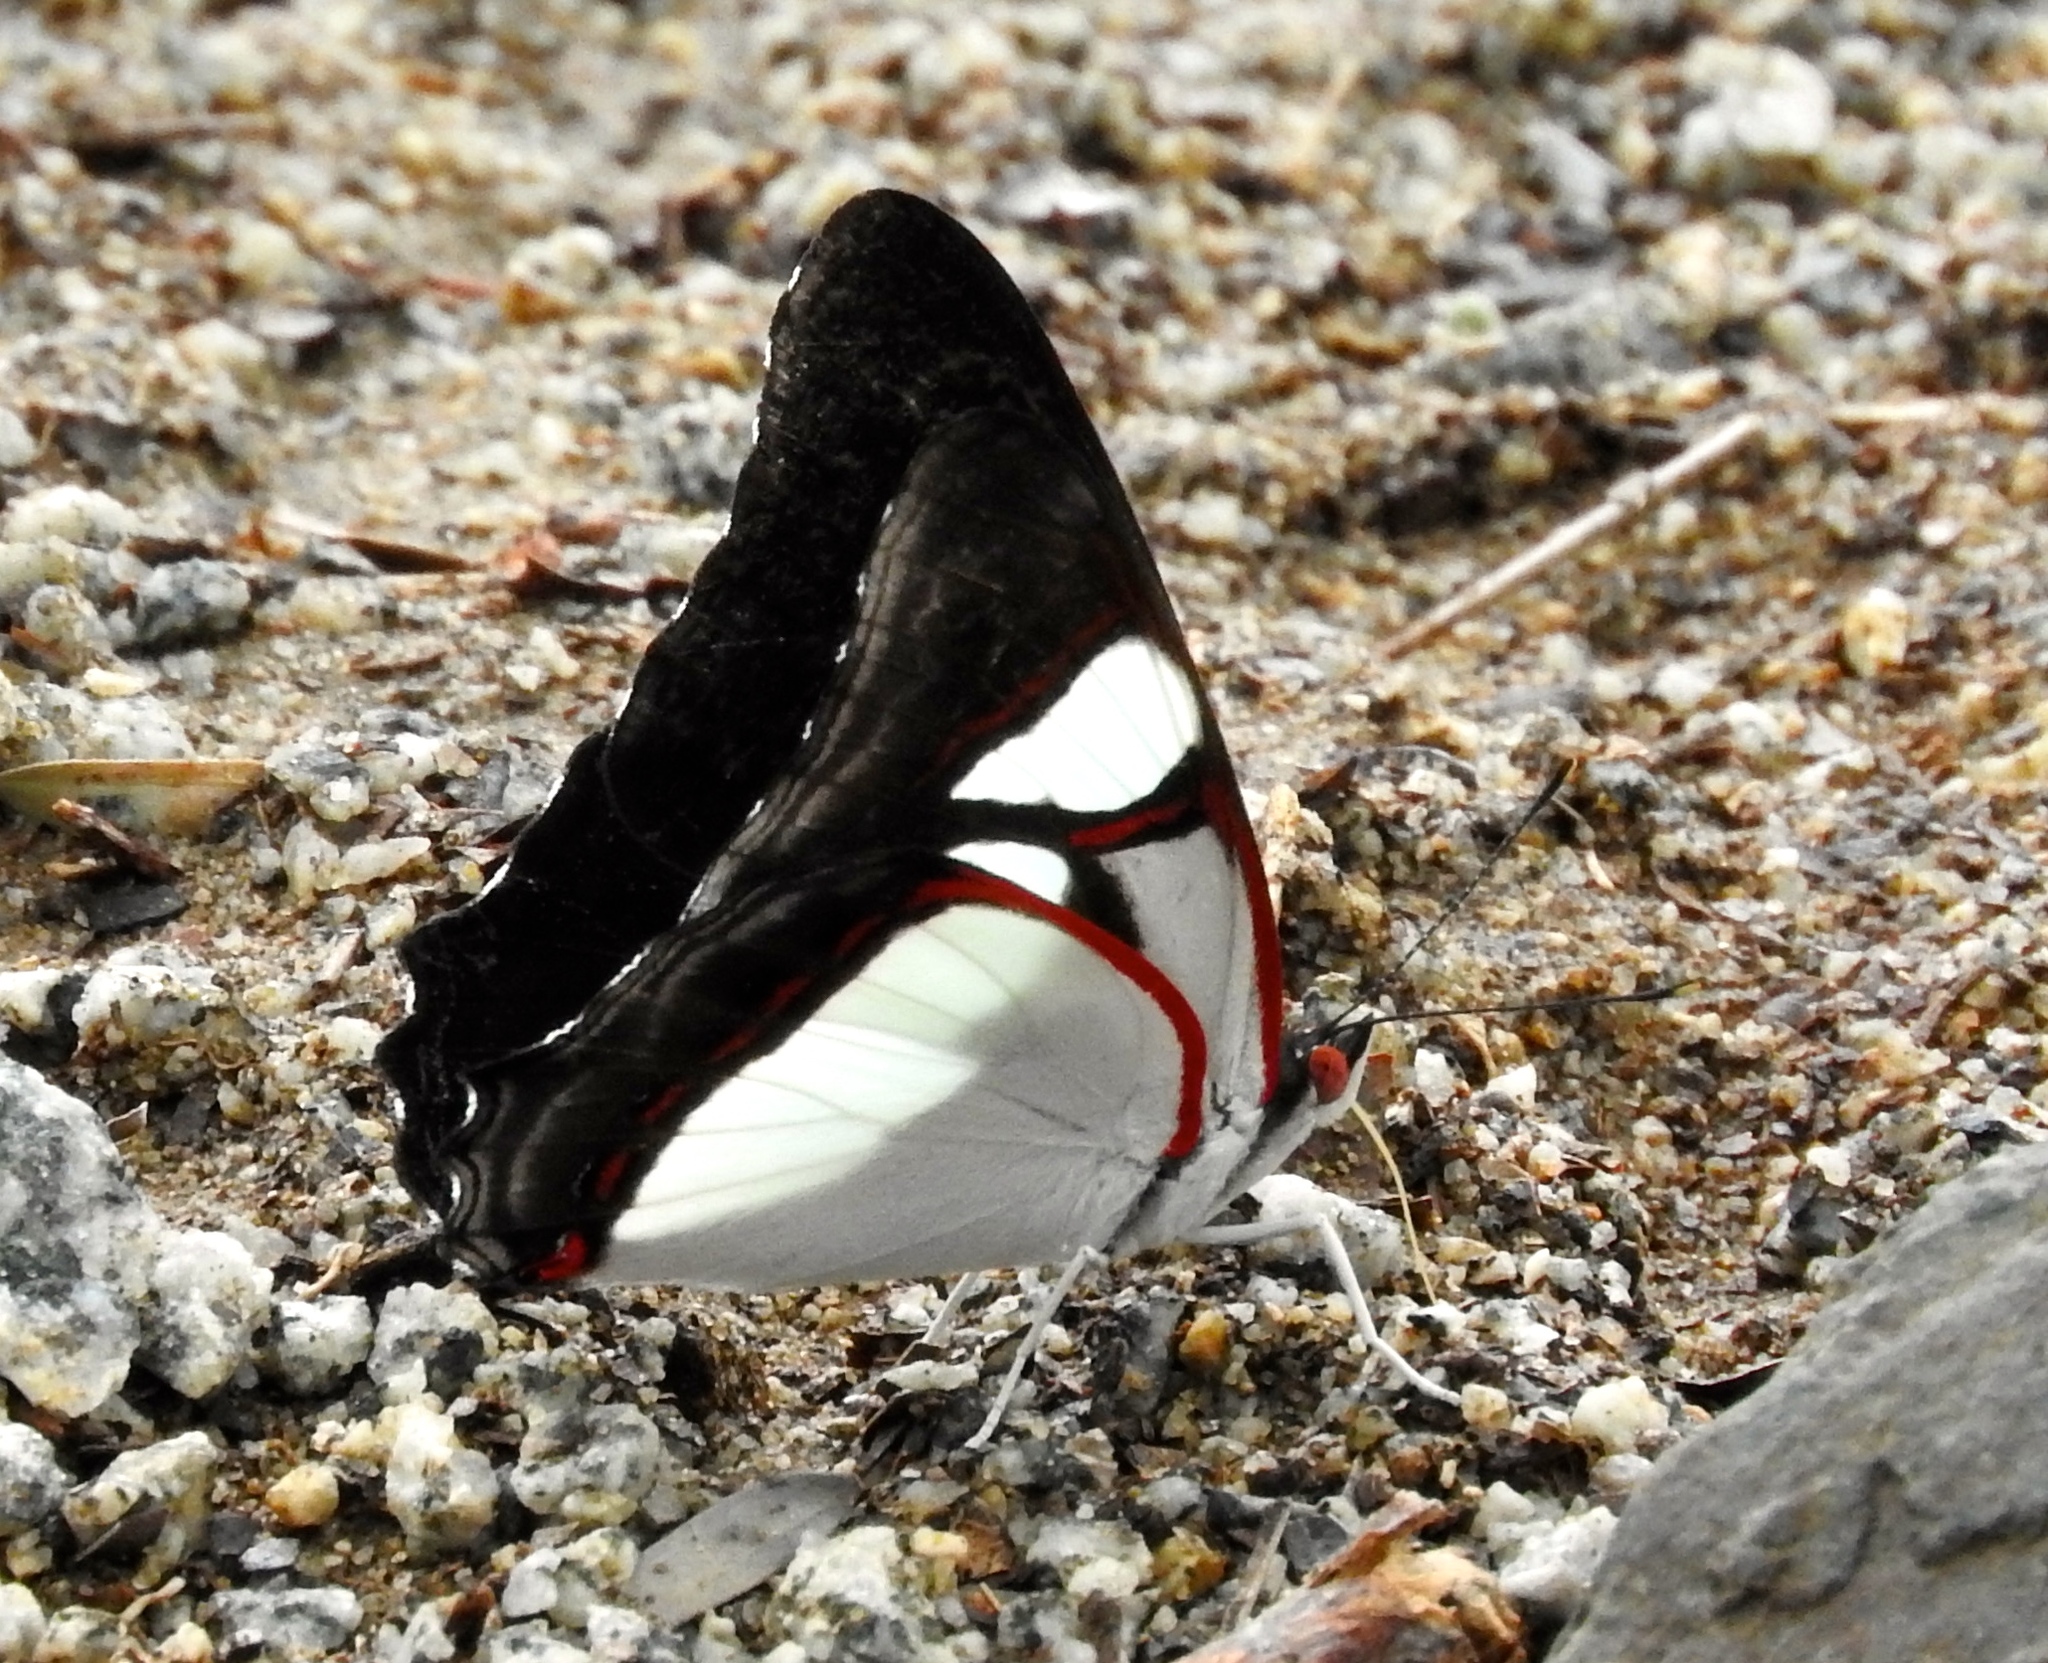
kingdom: Animalia
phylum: Arthropoda
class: Insecta
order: Lepidoptera
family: Nymphalidae
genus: Pyrrhogyra
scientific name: Pyrrhogyra neaerea
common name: Leading red-ring
